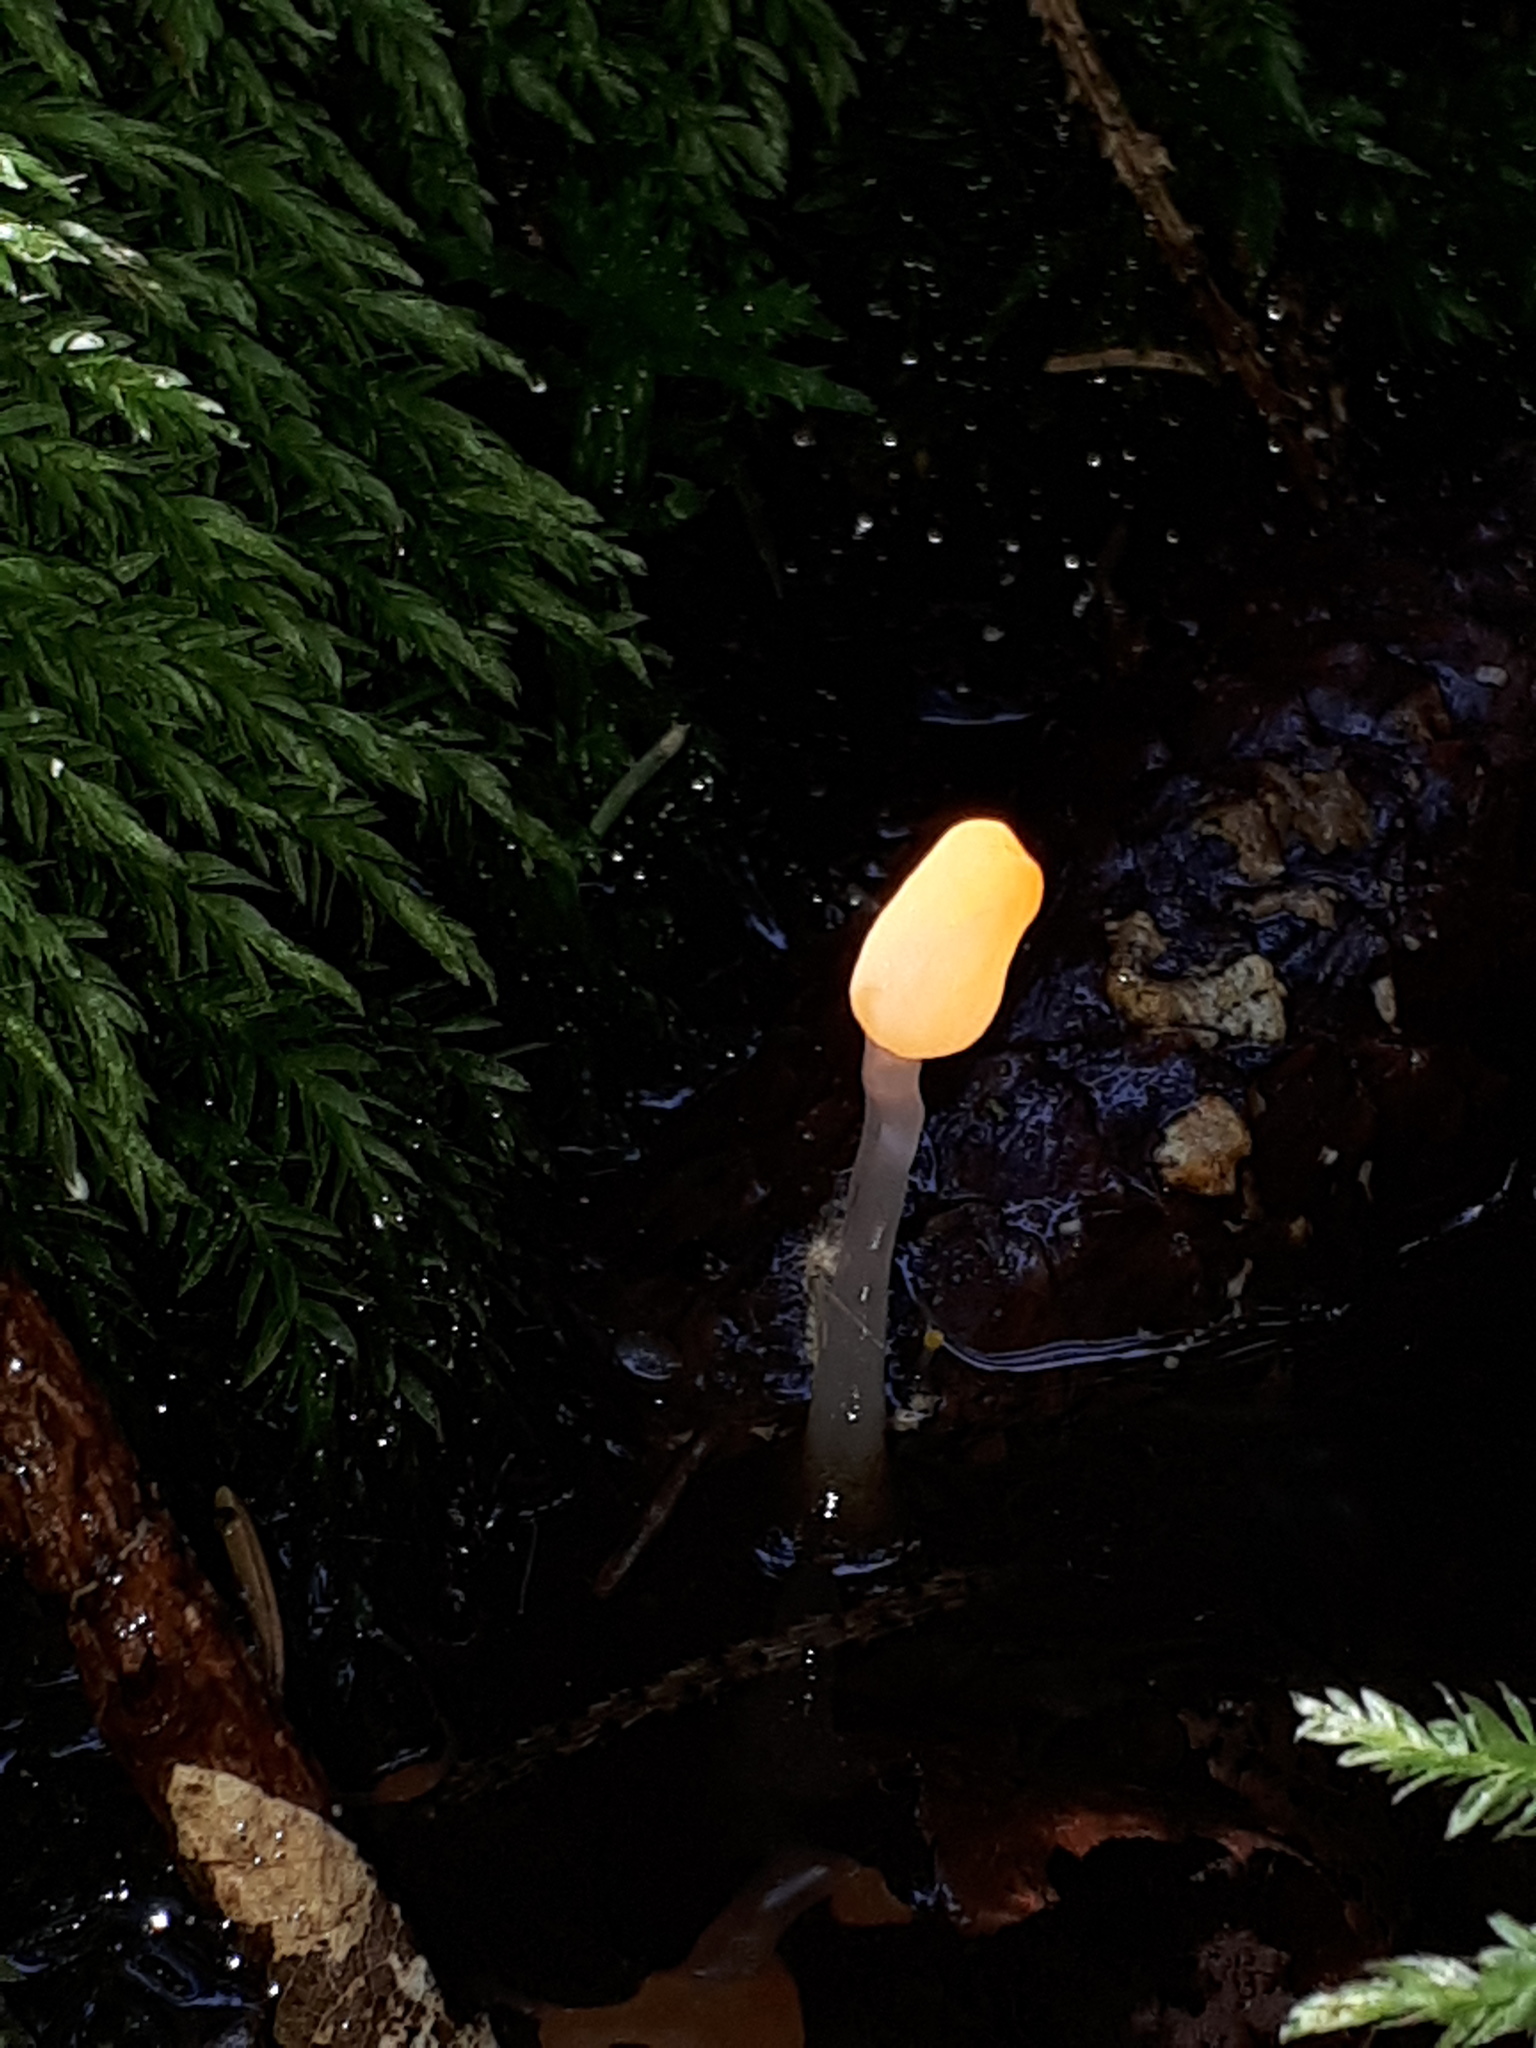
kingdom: Fungi
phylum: Ascomycota
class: Leotiomycetes
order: Helotiales
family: Cenangiaceae
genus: Mitrula
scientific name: Mitrula paludosa
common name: Bog beacon
